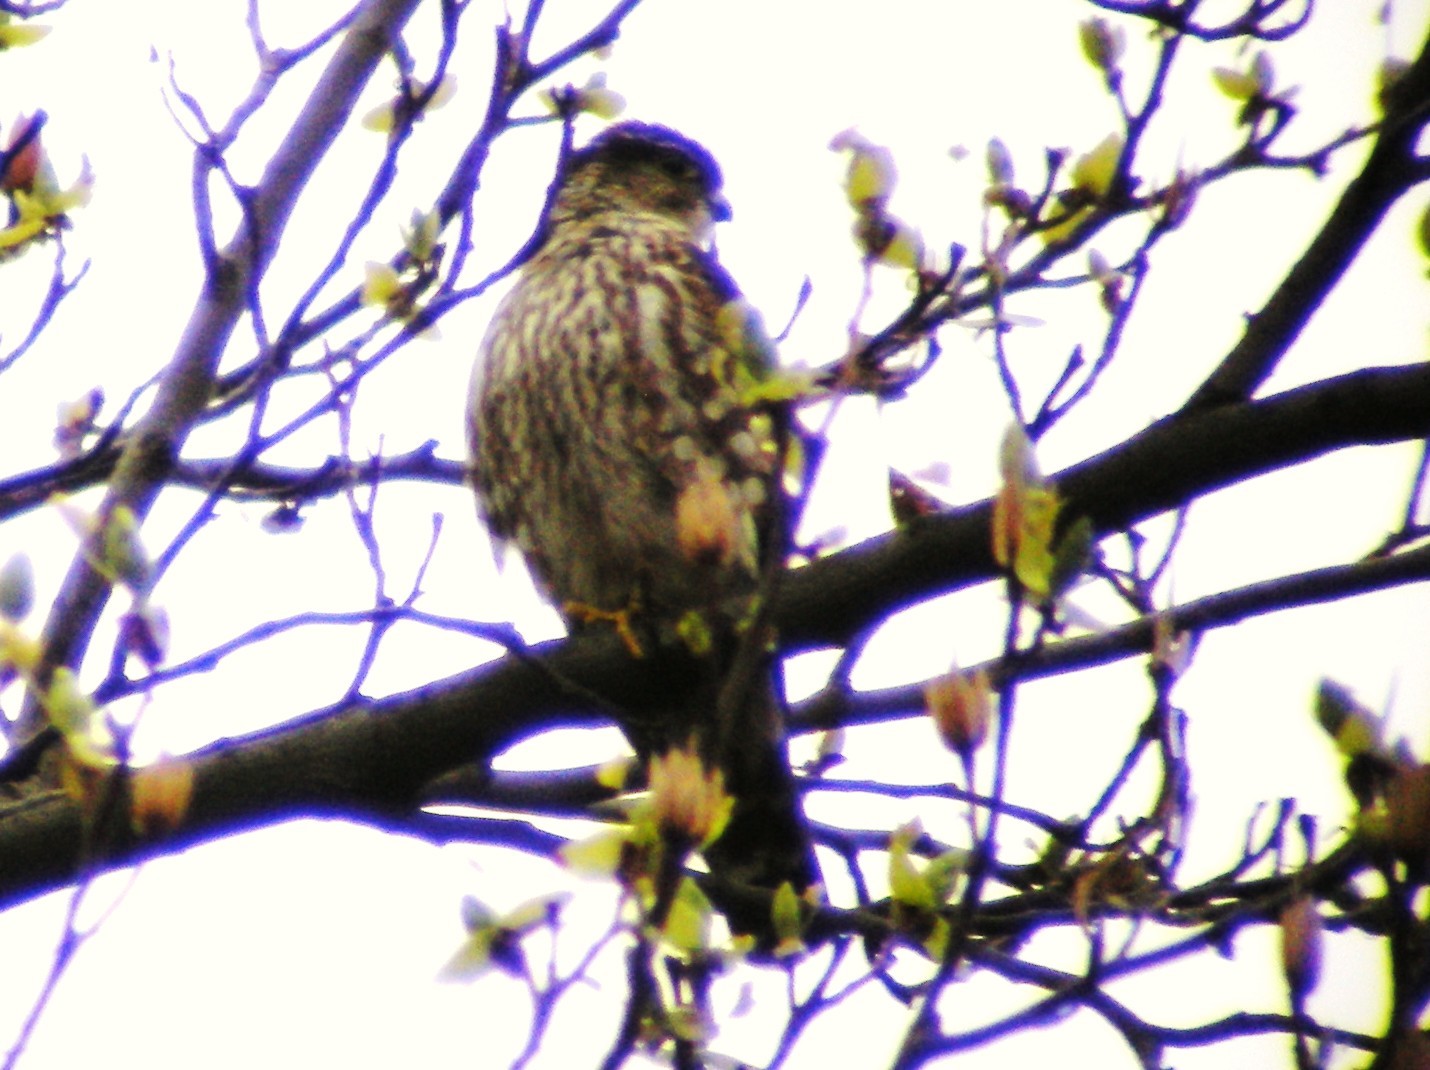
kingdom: Animalia
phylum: Chordata
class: Aves
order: Falconiformes
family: Falconidae
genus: Falco
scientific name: Falco columbarius
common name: Merlin
